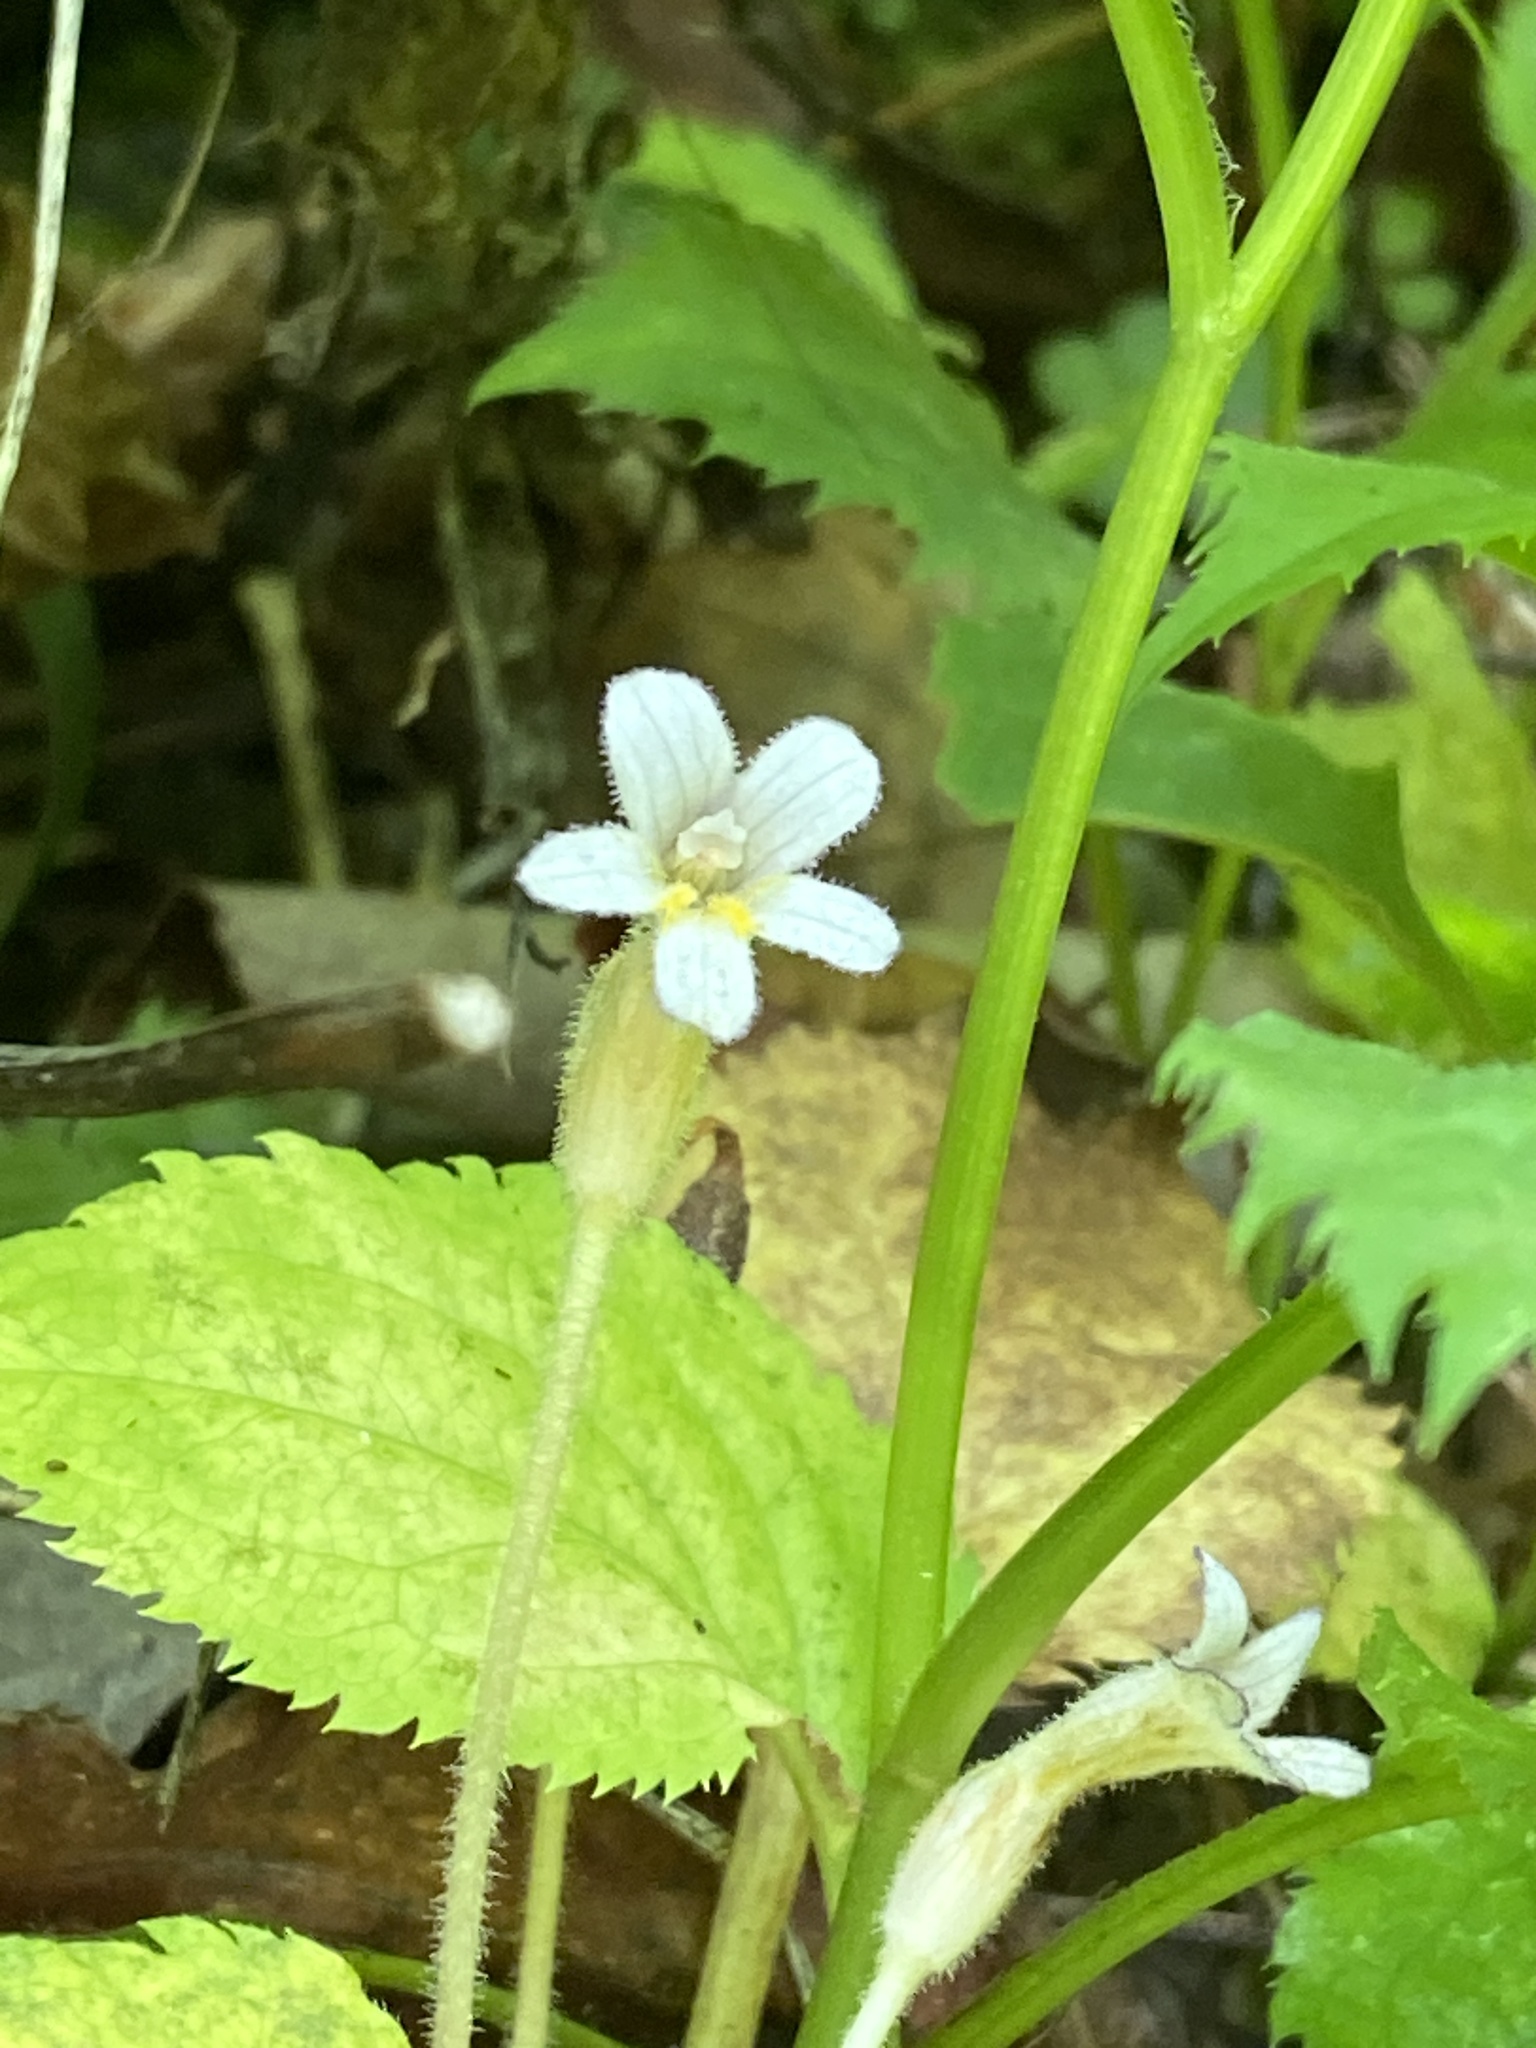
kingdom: Plantae
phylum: Tracheophyta
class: Magnoliopsida
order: Lamiales
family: Orobanchaceae
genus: Aphyllon
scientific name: Aphyllon uniflorum
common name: One-flowered broomrape
